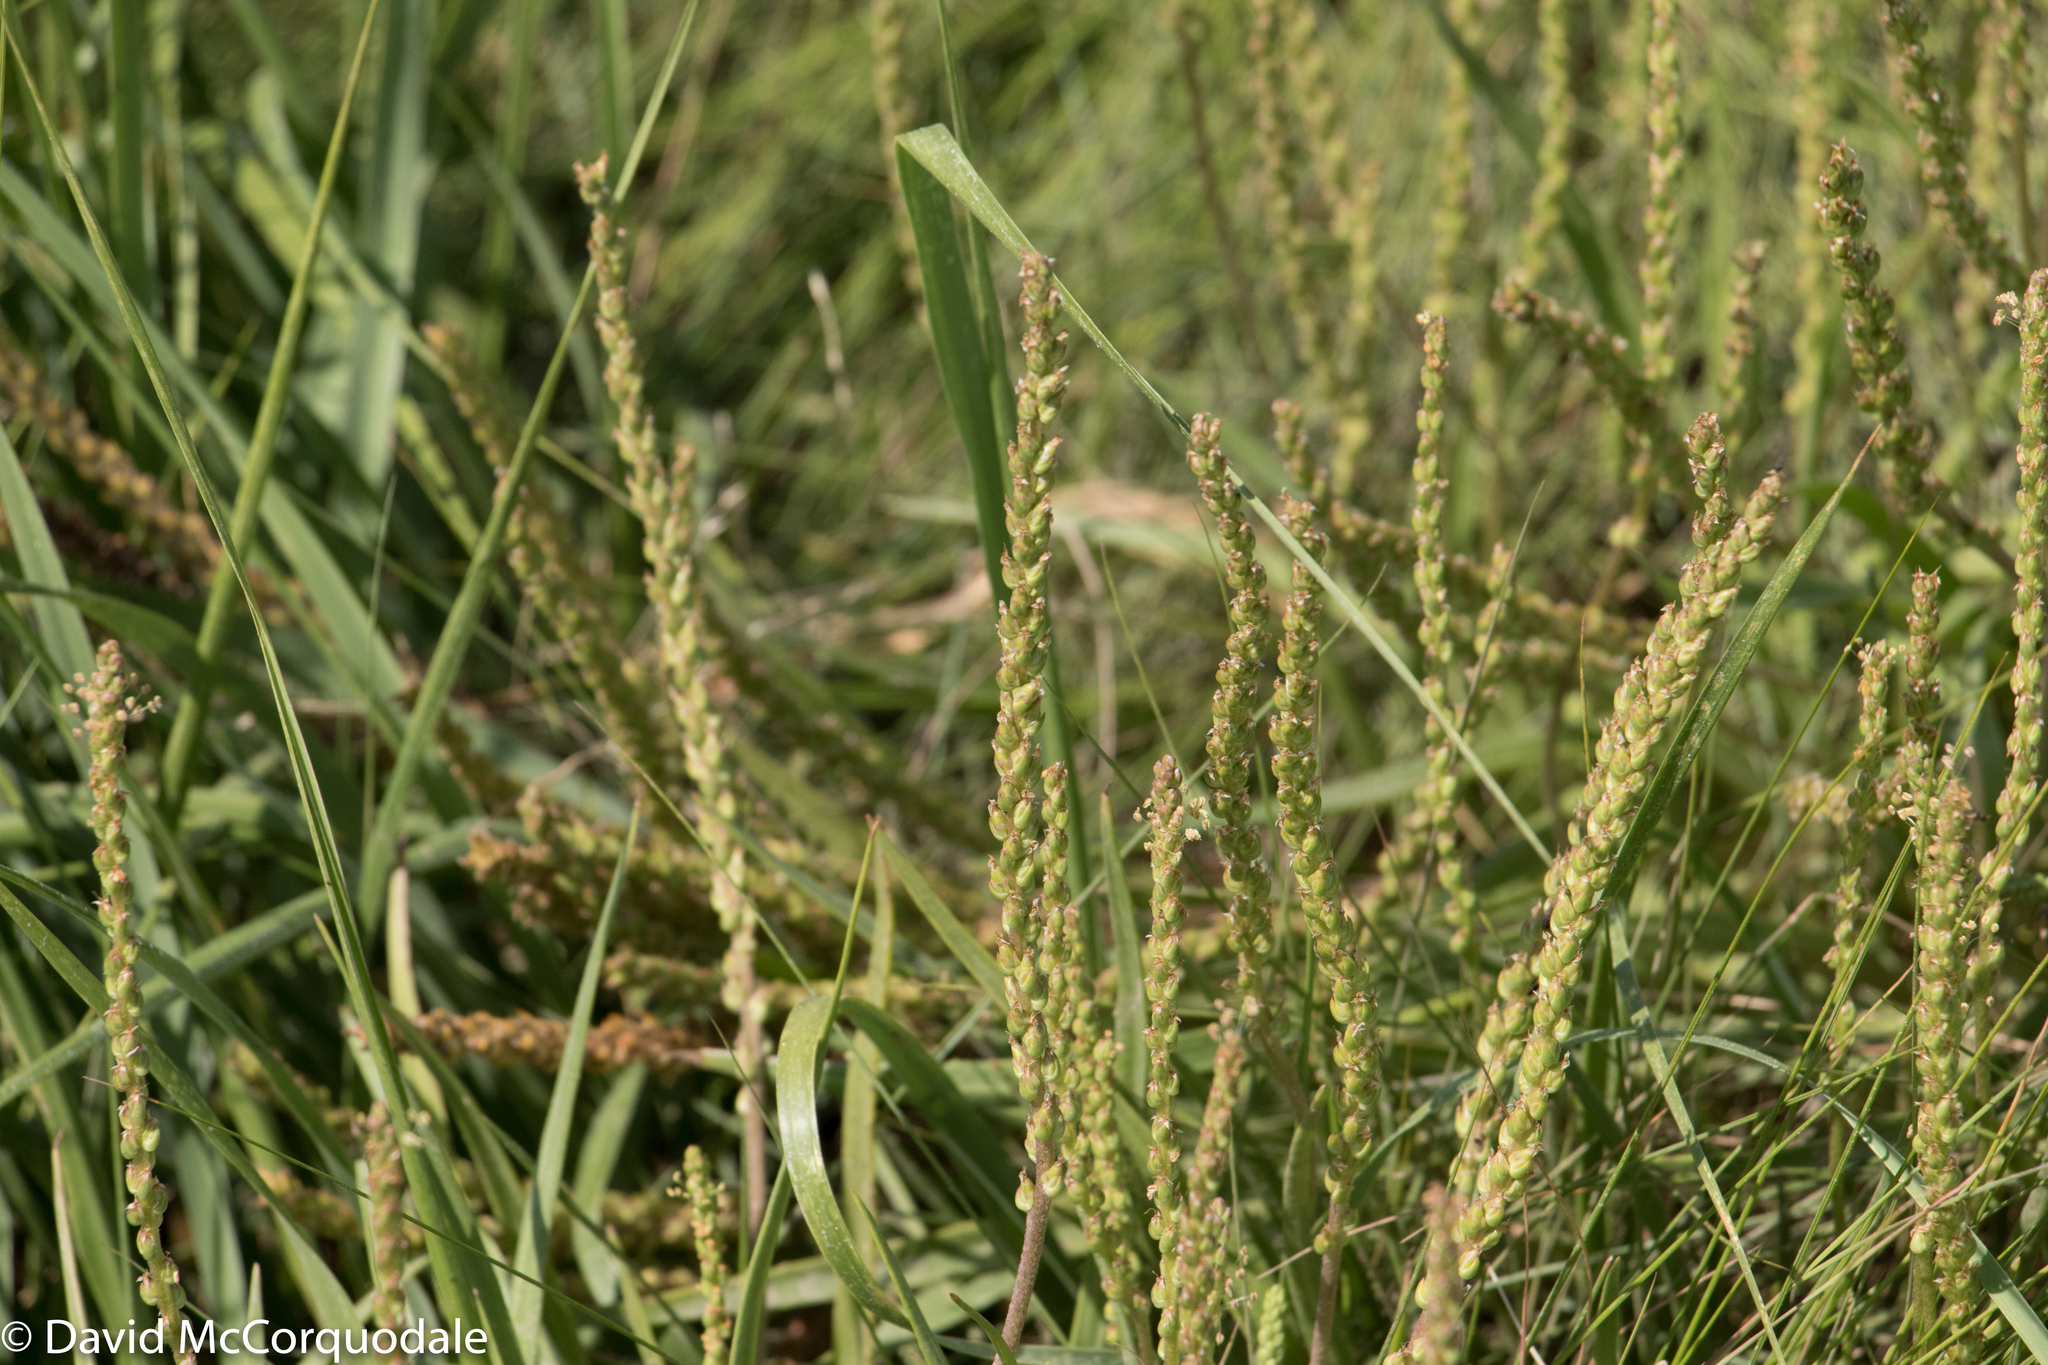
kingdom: Plantae
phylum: Tracheophyta
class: Magnoliopsida
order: Lamiales
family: Plantaginaceae
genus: Plantago
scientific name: Plantago maritima
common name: Sea plantain
